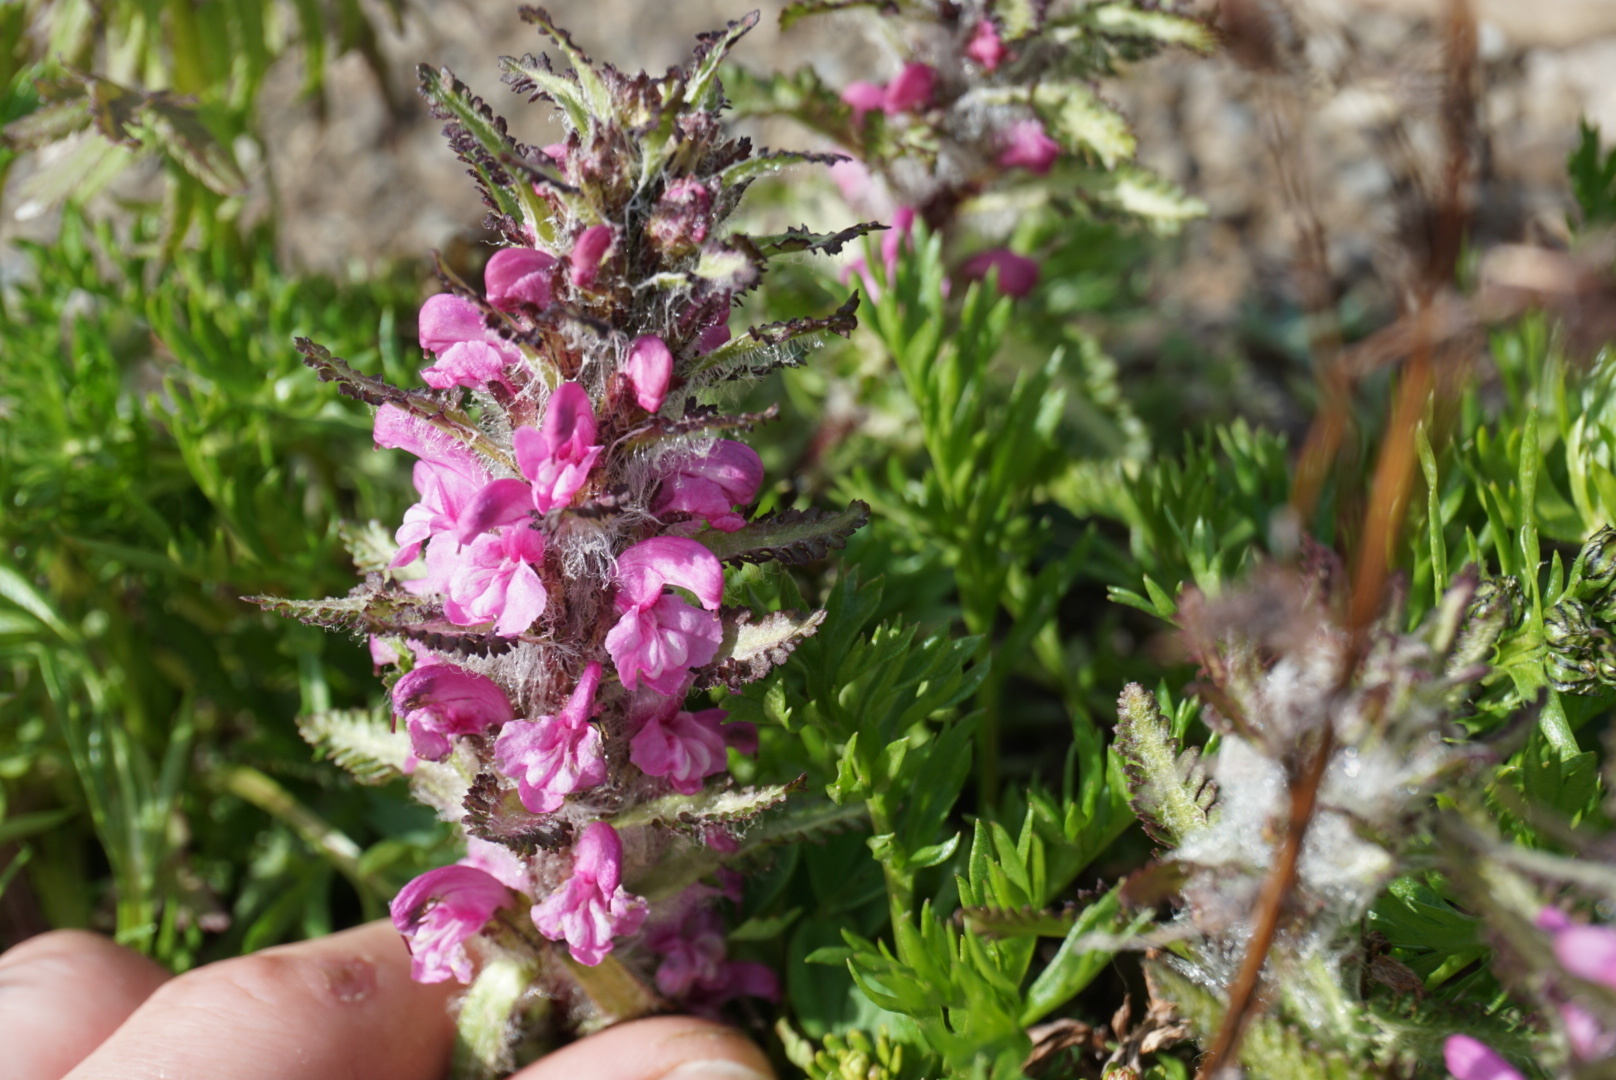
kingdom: Plantae
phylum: Tracheophyta
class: Magnoliopsida
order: Lamiales
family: Orobanchaceae
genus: Pedicularis
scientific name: Pedicularis langsdorffii
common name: Langsdorff's lousewort
